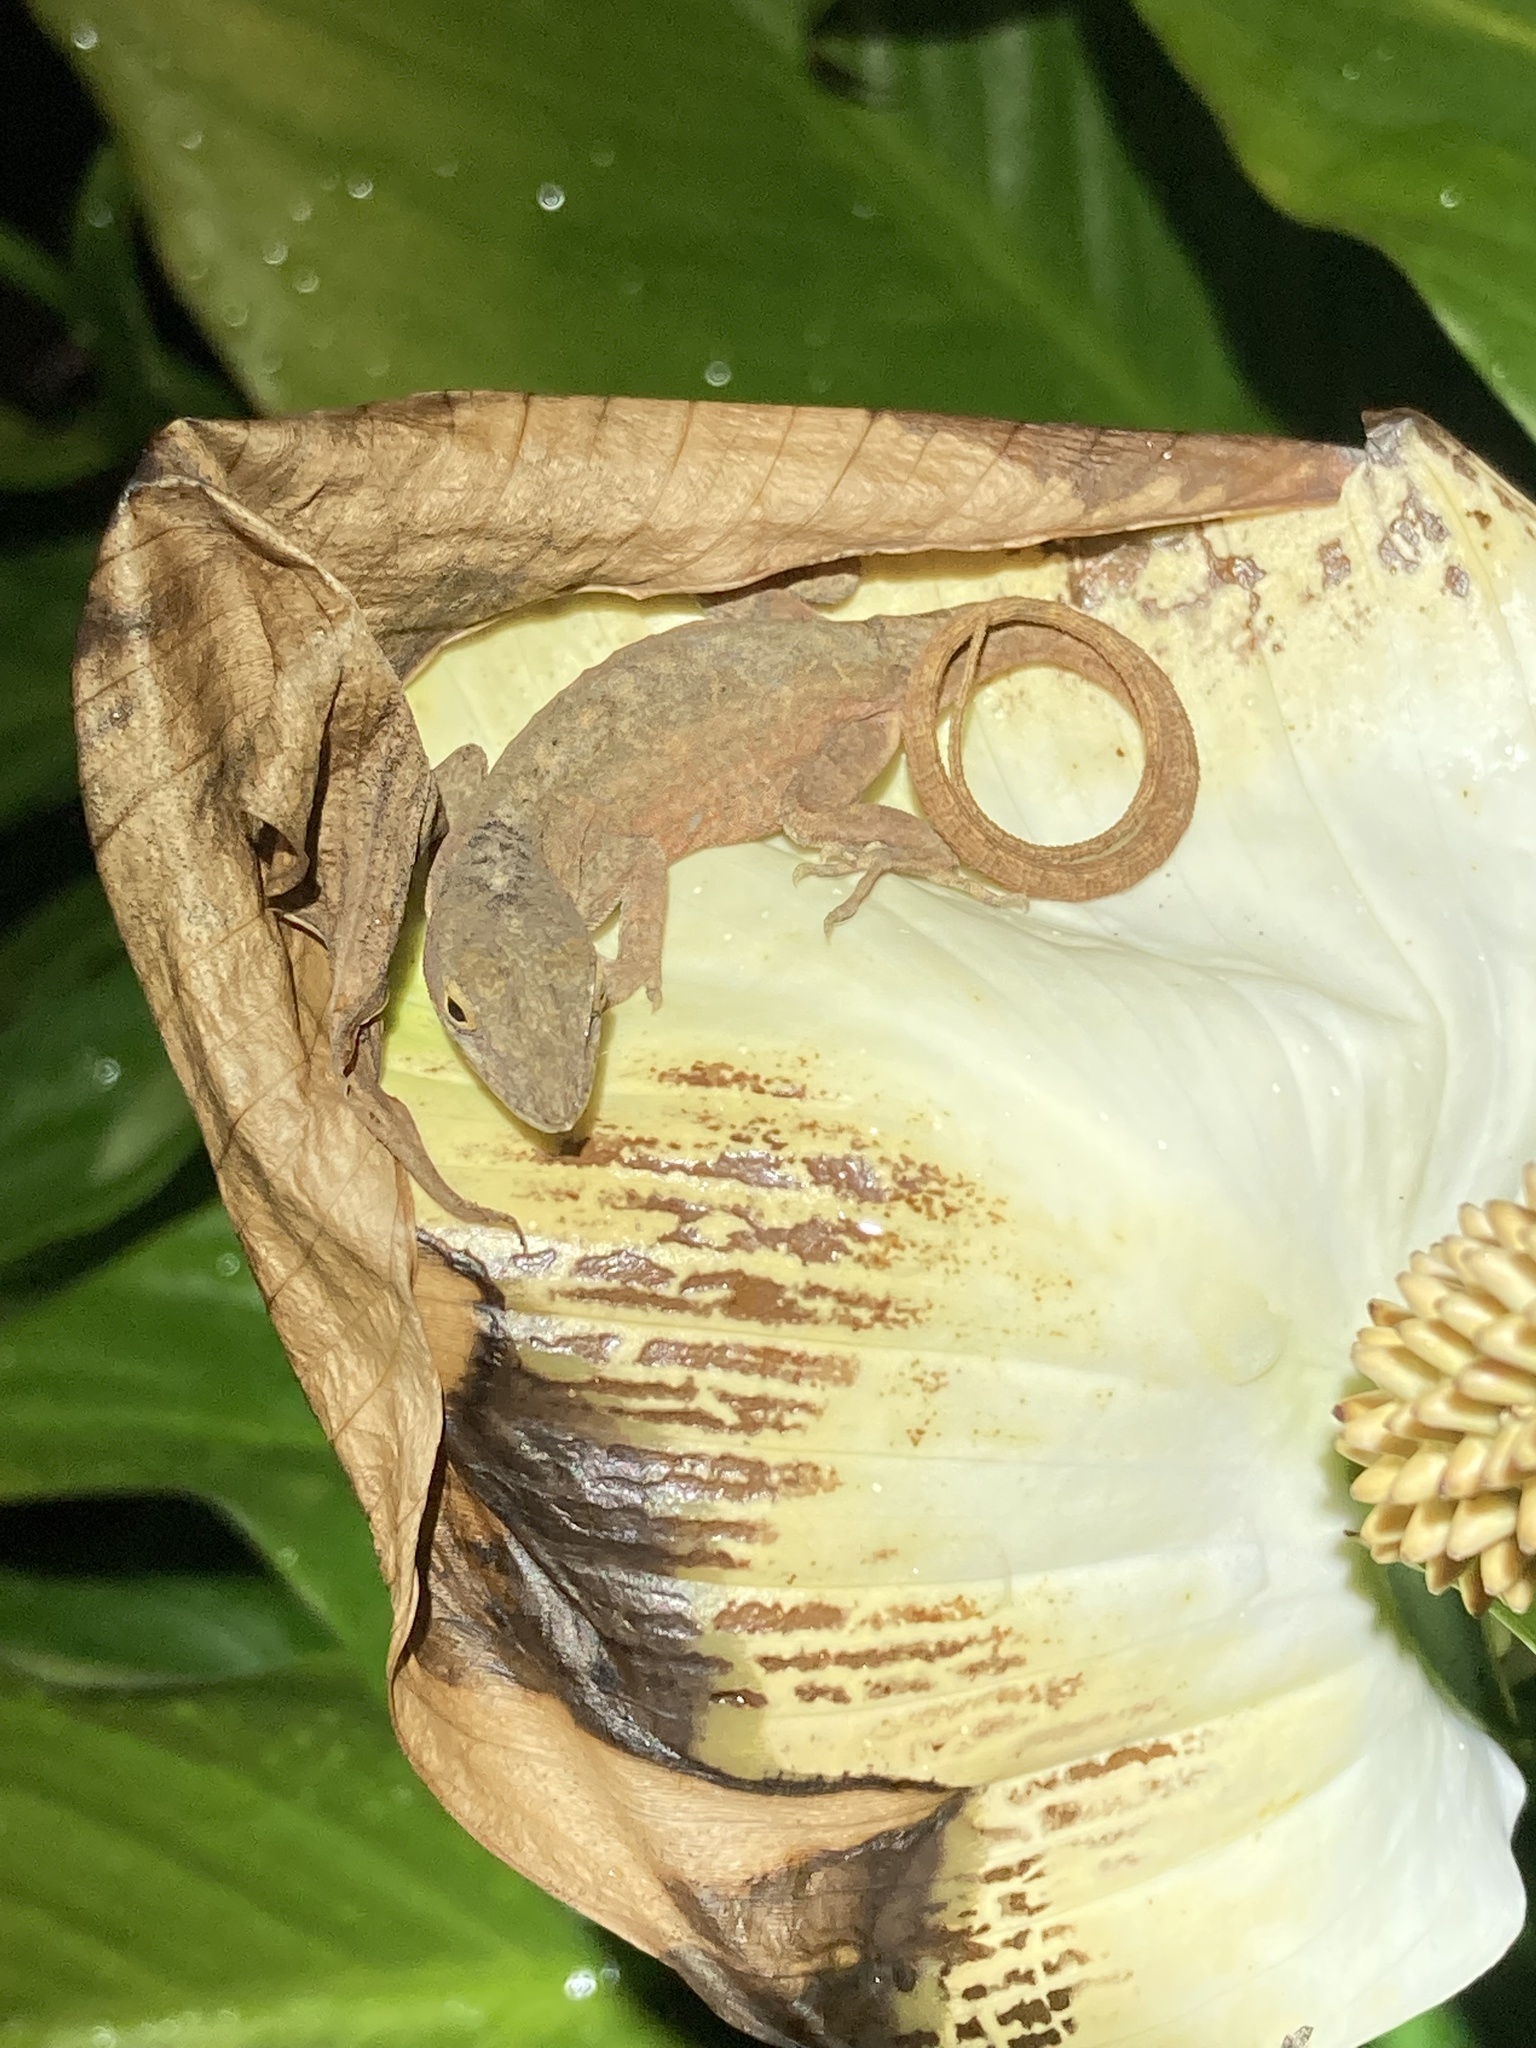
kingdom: Animalia
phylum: Chordata
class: Squamata
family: Dactyloidae
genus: Anolis
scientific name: Anolis sagrei
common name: Brown anole
